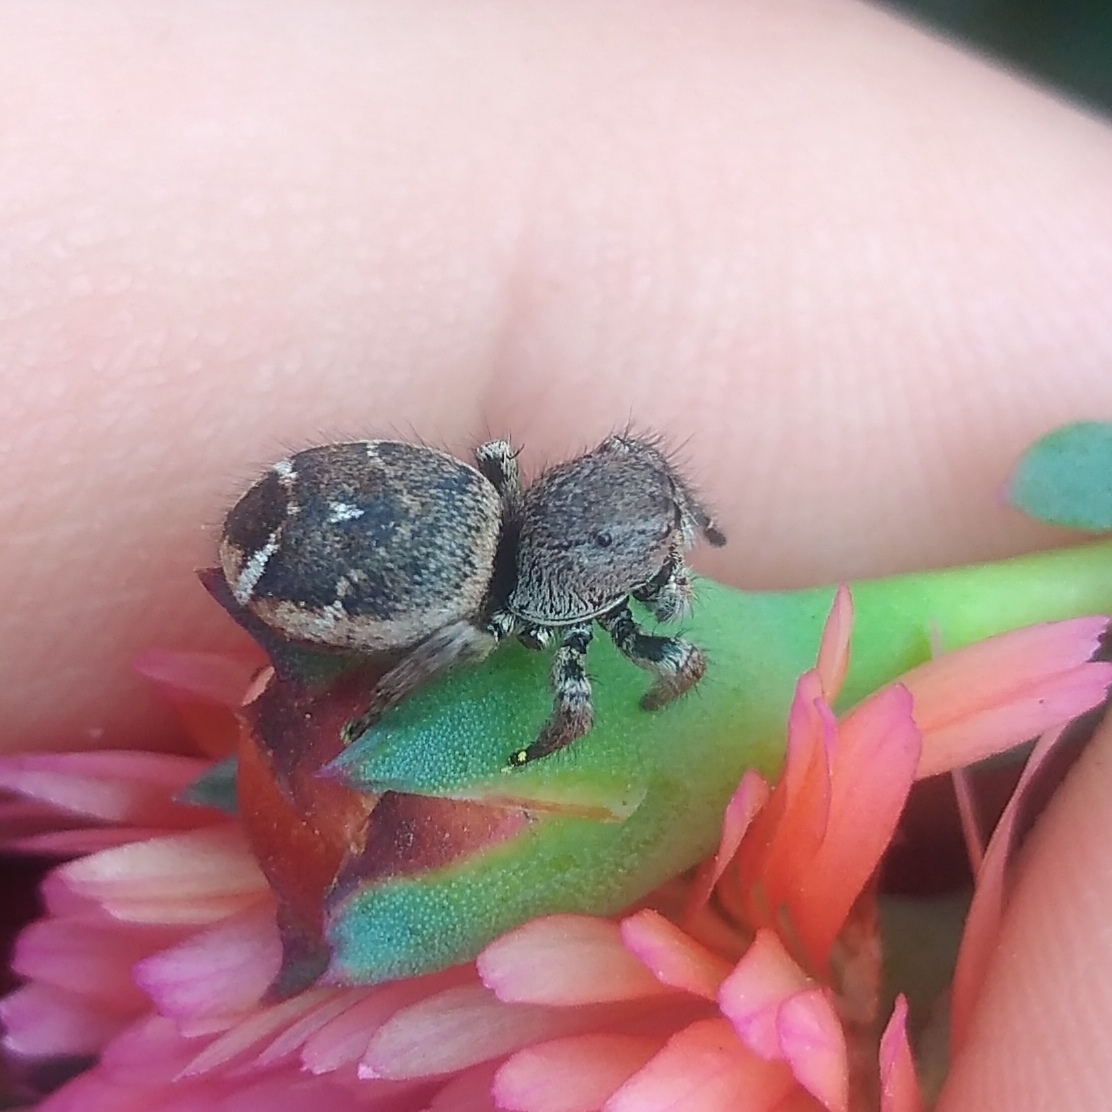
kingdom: Animalia
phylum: Arthropoda
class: Arachnida
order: Araneae
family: Salticidae
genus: Baryphas
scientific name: Baryphas ahenus
